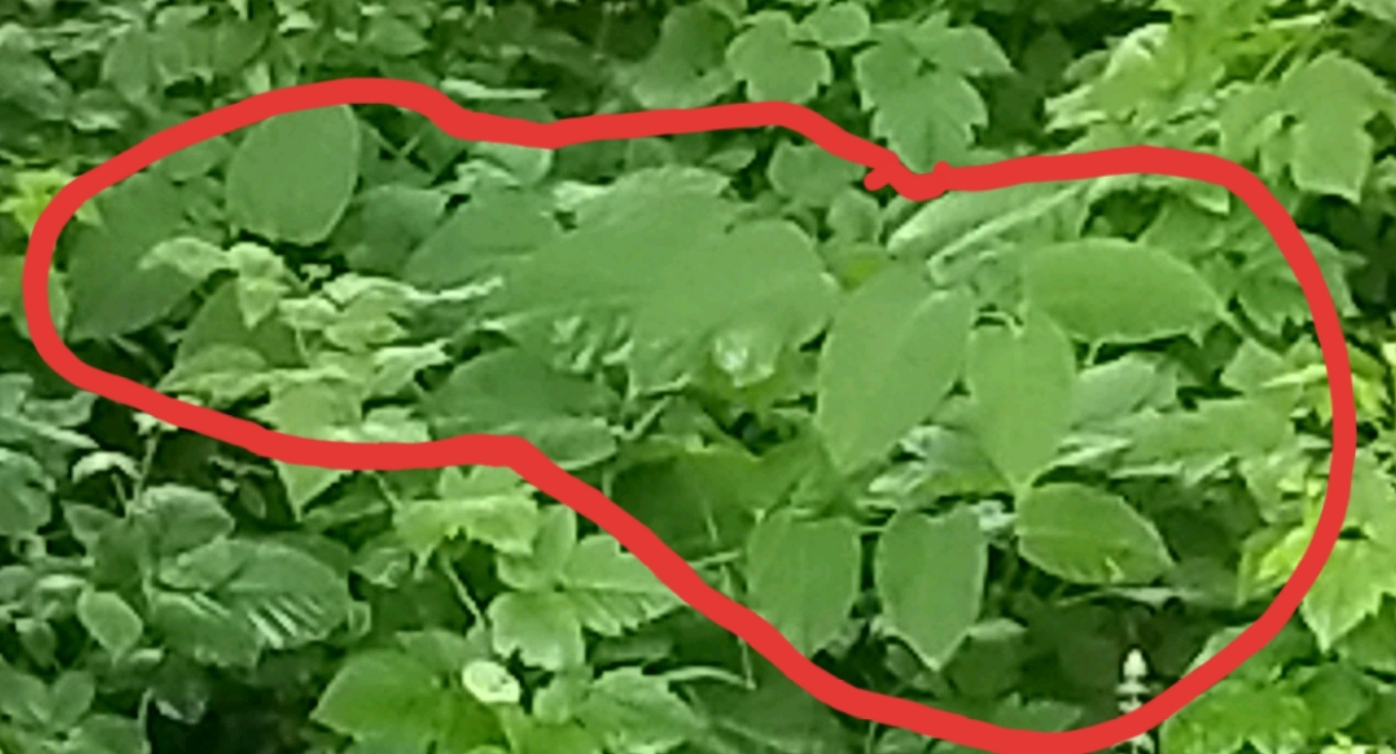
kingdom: Plantae
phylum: Tracheophyta
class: Magnoliopsida
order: Caryophyllales
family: Polygonaceae
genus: Reynoutria
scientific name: Reynoutria bohemica
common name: Bohemian knotweed
